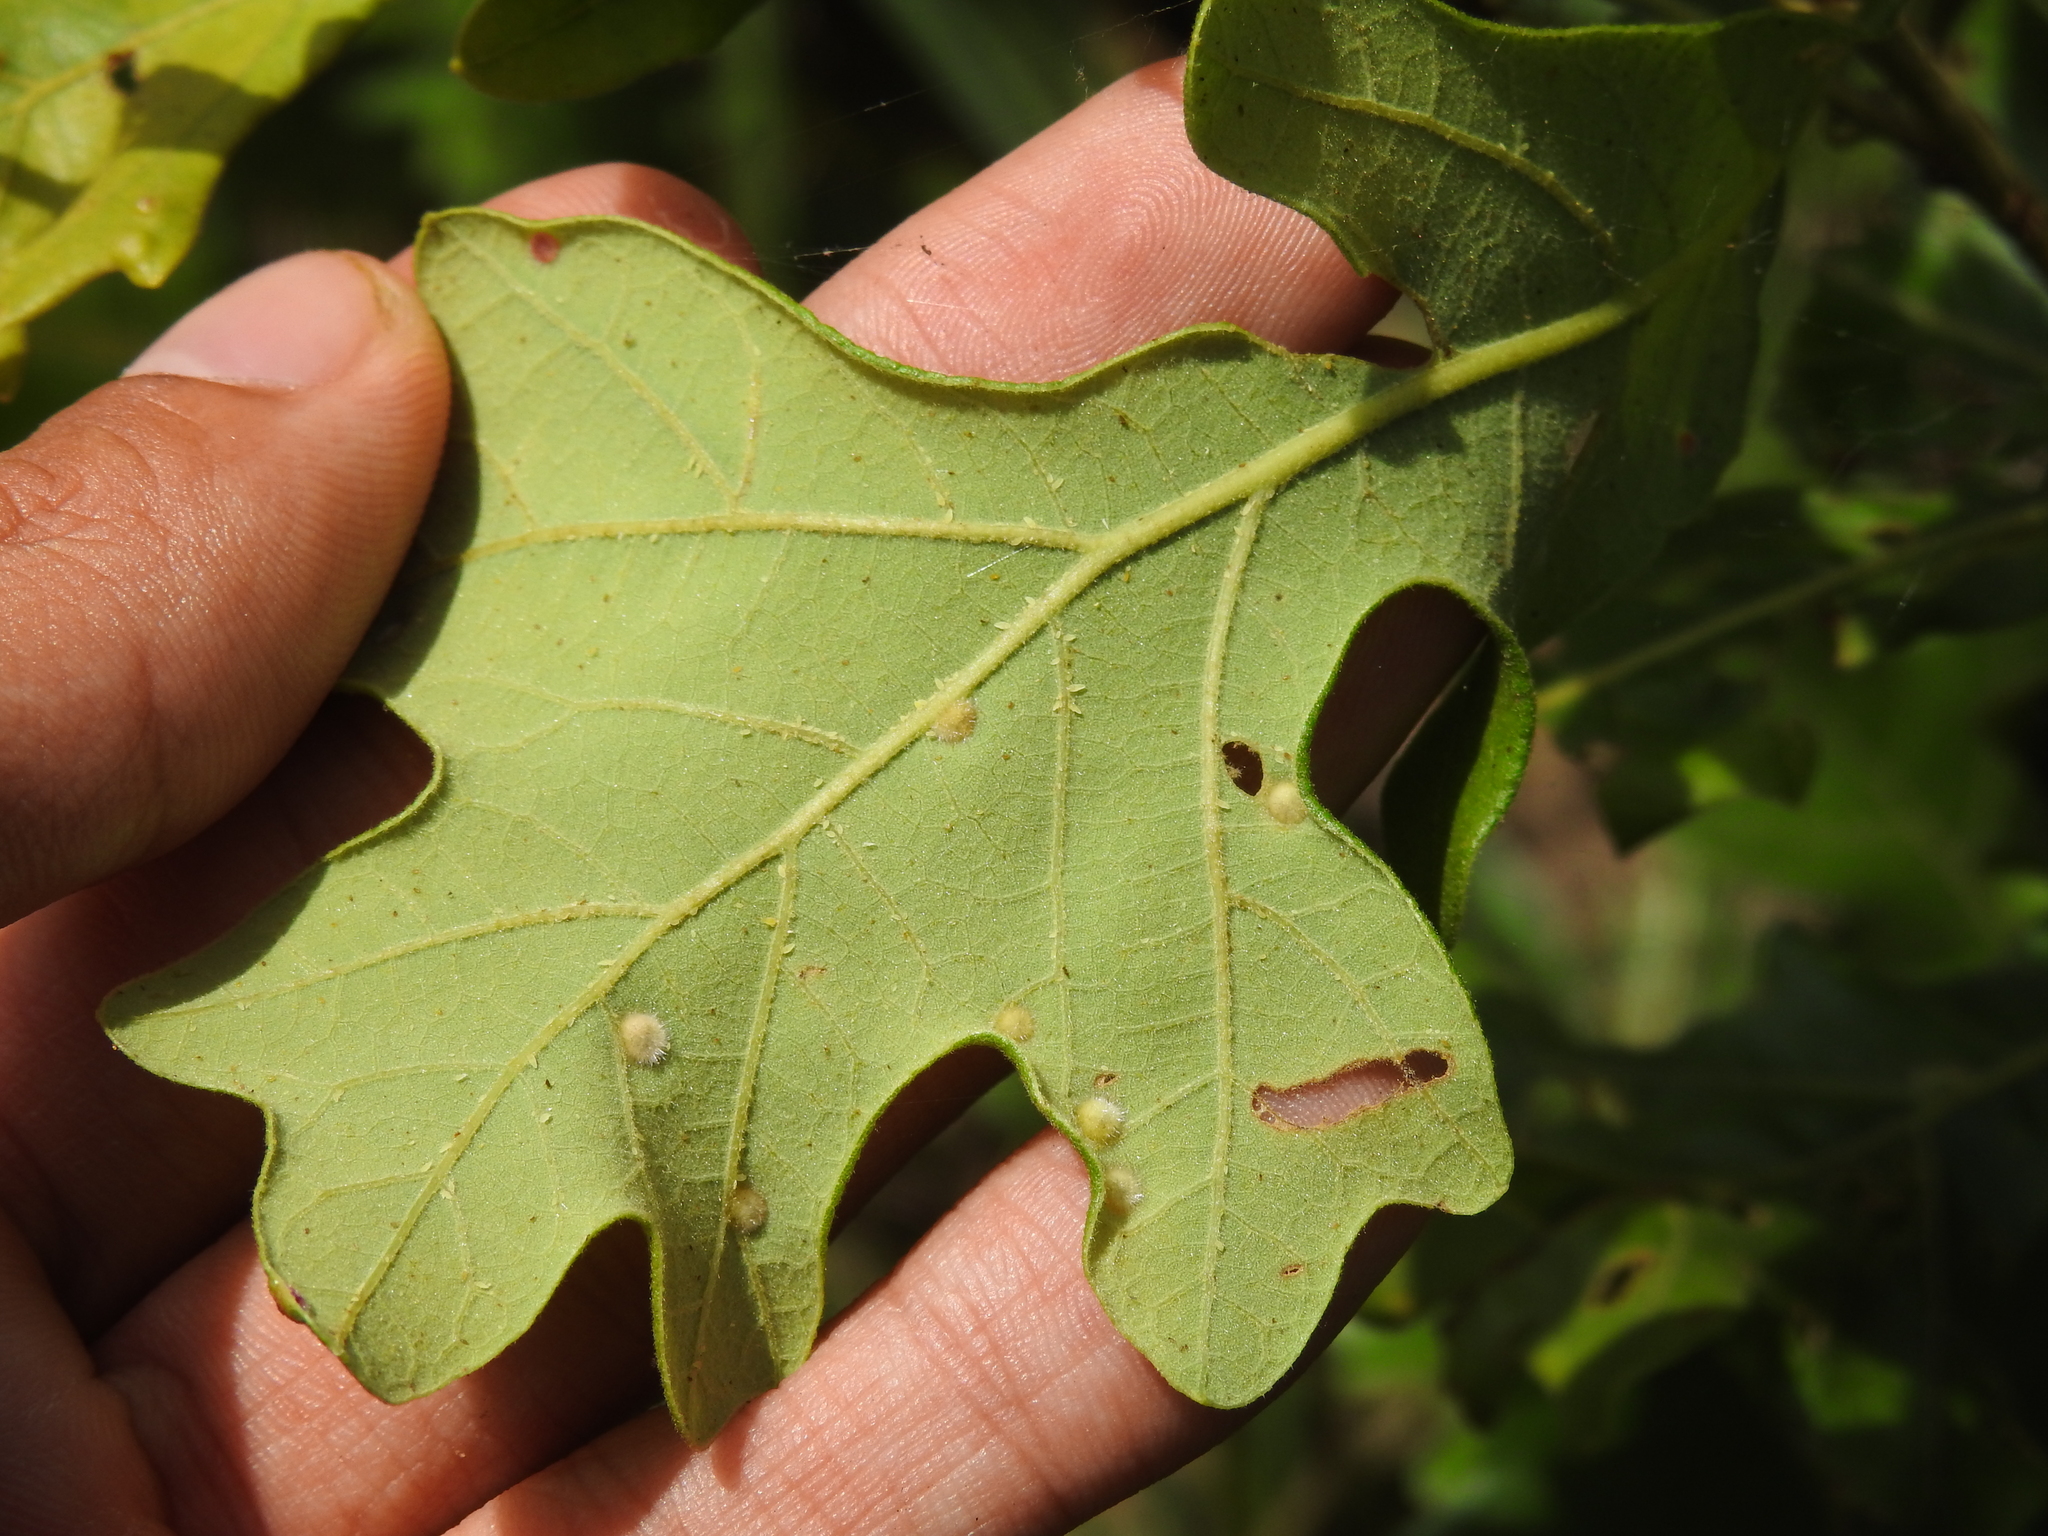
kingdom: Animalia
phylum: Arthropoda
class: Insecta
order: Hymenoptera
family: Cynipidae
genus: Neuroterus
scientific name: Neuroterus quercusverrucarum
